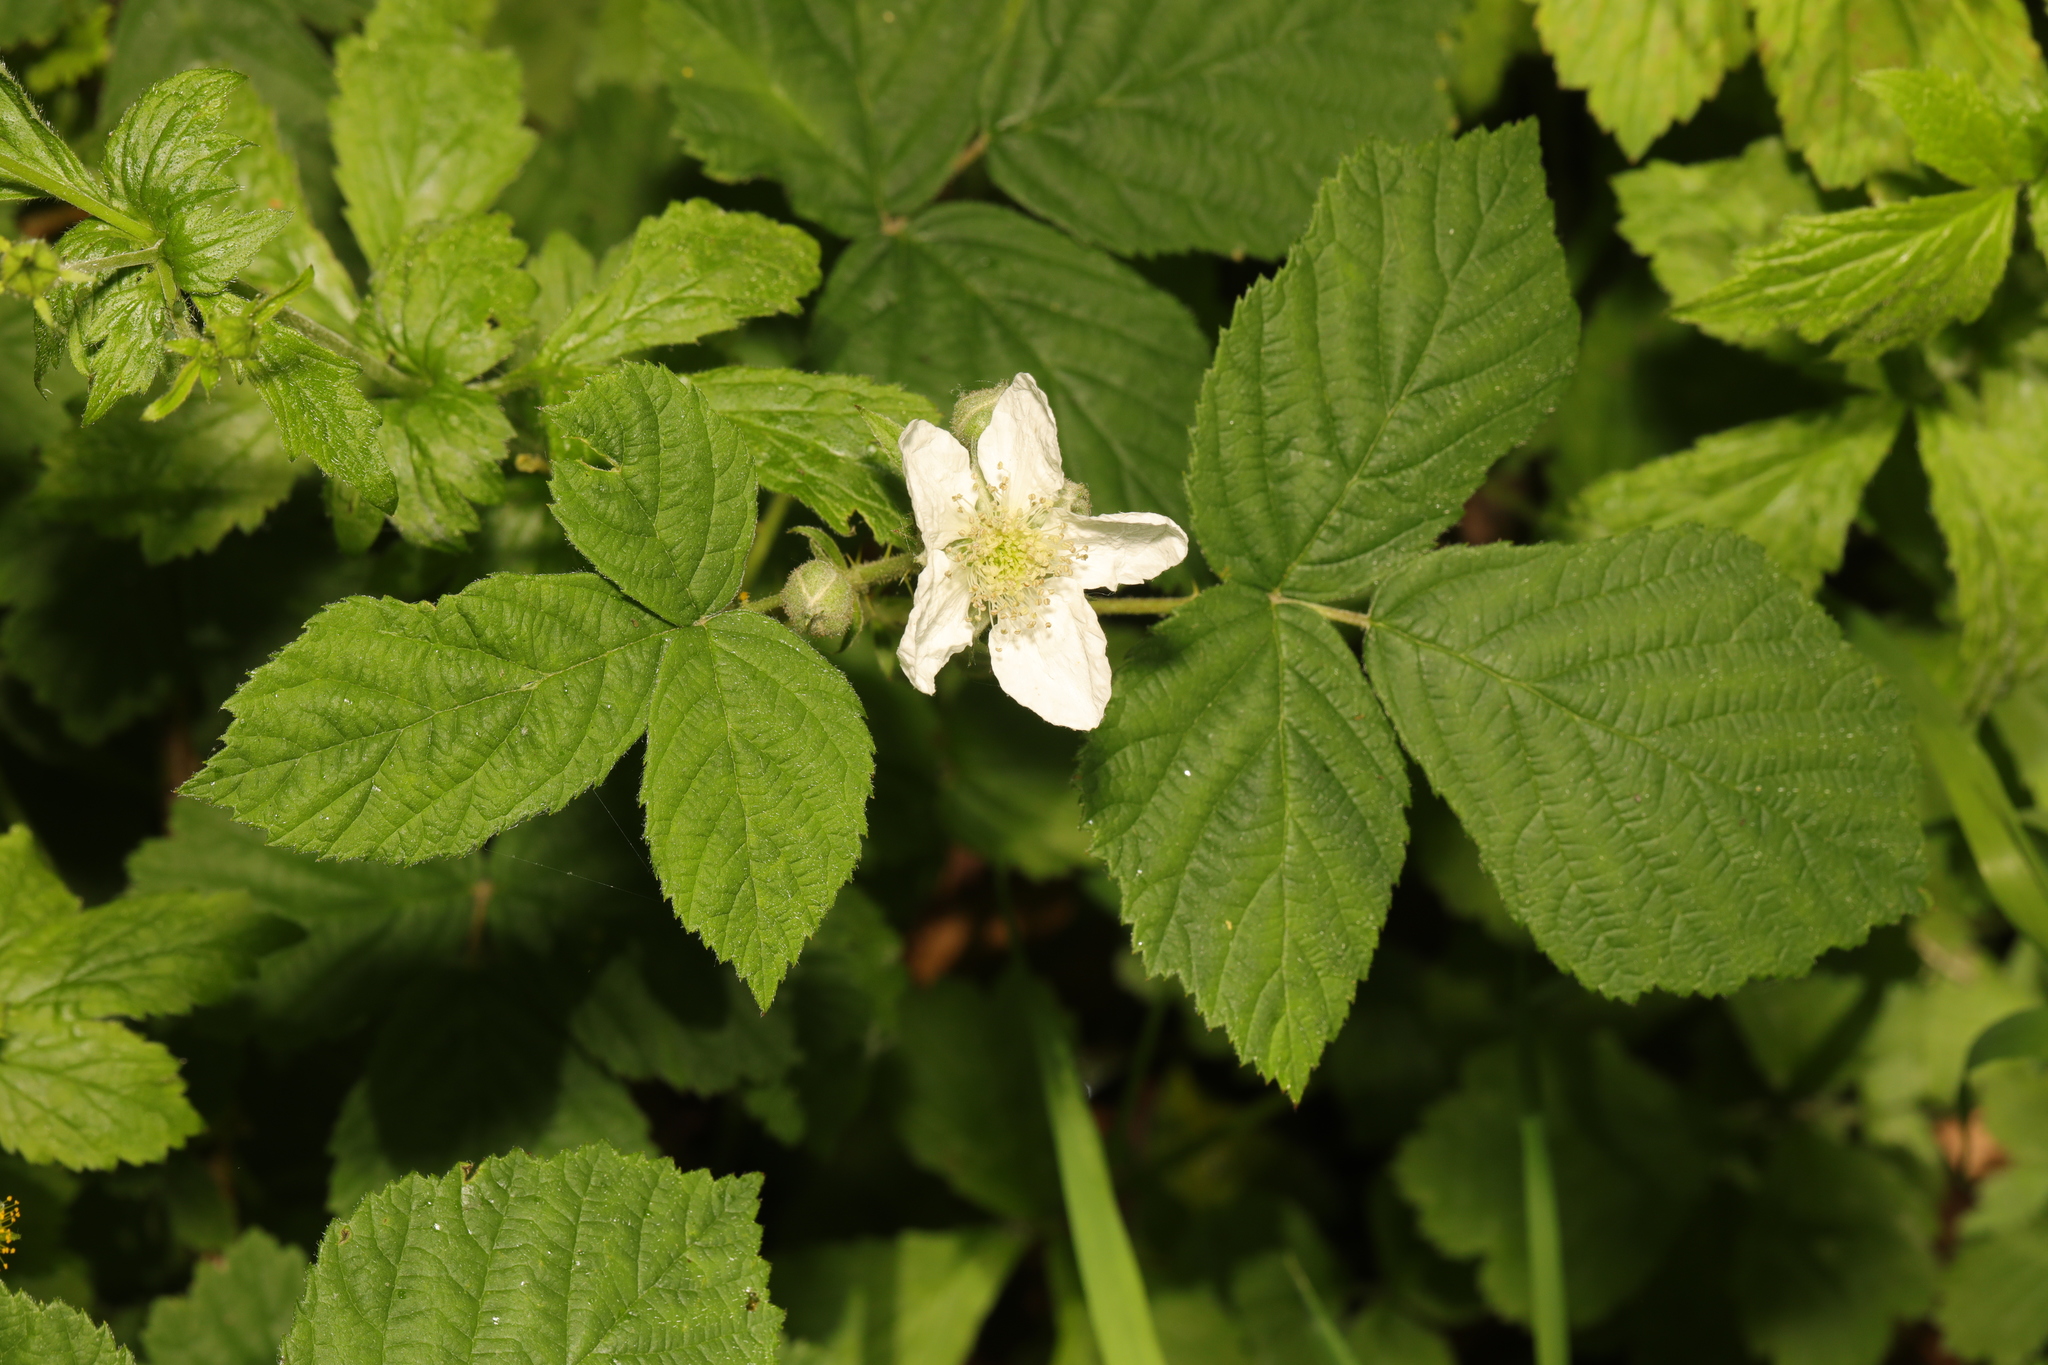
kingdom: Plantae
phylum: Tracheophyta
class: Magnoliopsida
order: Rosales
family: Rosaceae
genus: Rubus
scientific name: Rubus horrefactus
